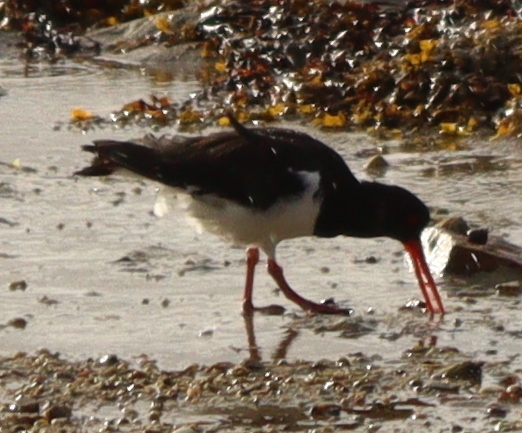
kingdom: Animalia
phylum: Chordata
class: Aves
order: Charadriiformes
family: Haematopodidae
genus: Haematopus
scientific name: Haematopus ostralegus
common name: Eurasian oystercatcher
